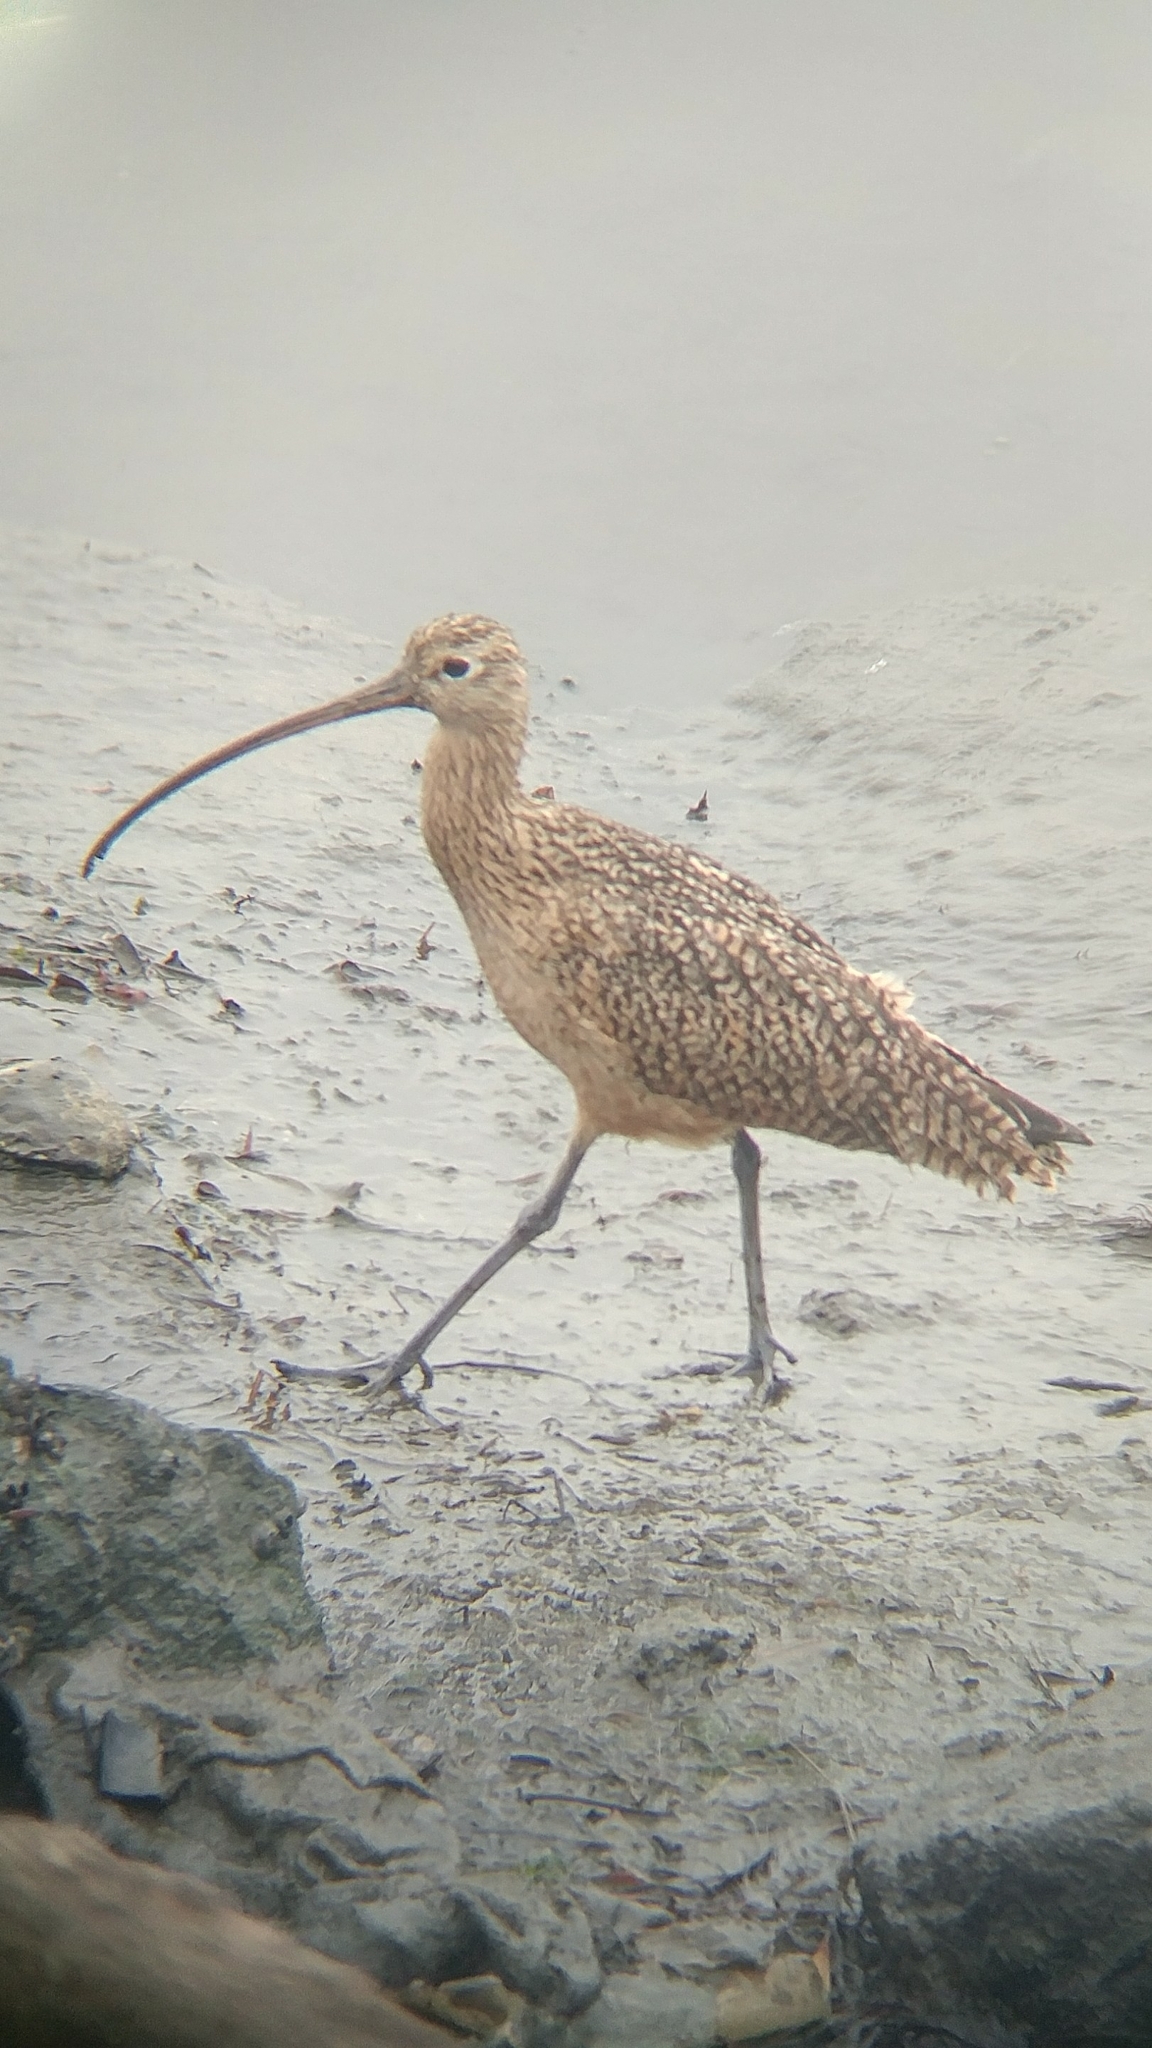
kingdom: Animalia
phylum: Chordata
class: Aves
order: Charadriiformes
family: Scolopacidae
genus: Numenius
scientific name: Numenius americanus
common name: Long-billed curlew
